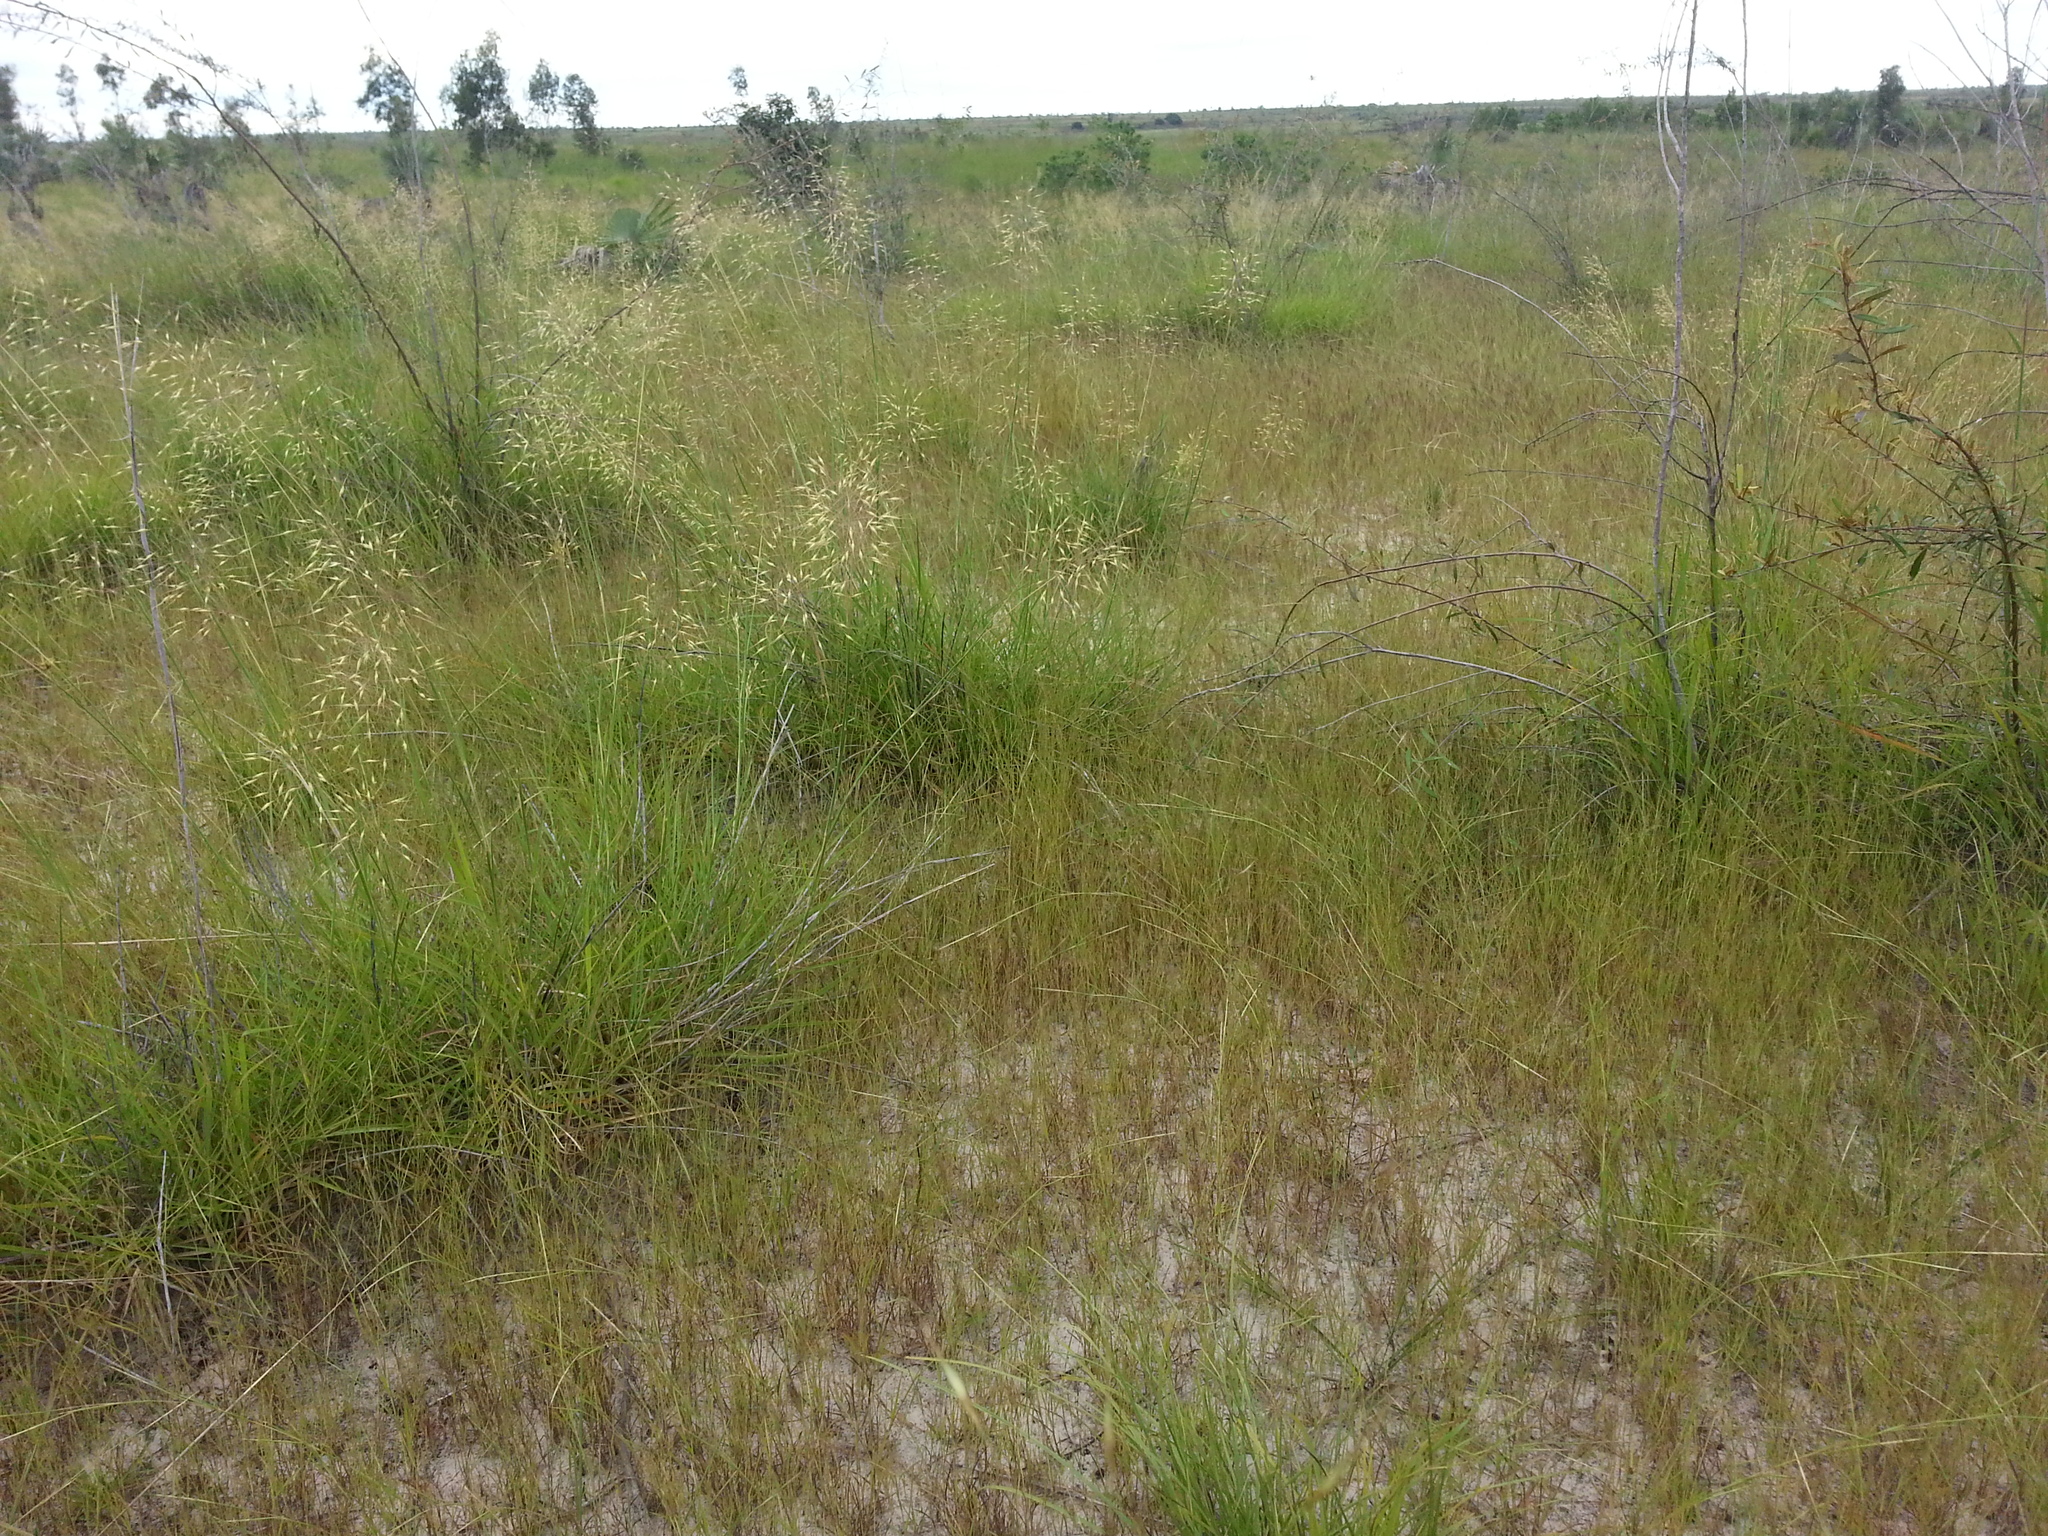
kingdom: Plantae
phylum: Tracheophyta
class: Liliopsida
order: Poales
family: Poaceae
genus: Chrysopogon
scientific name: Chrysopogon serrulatus
